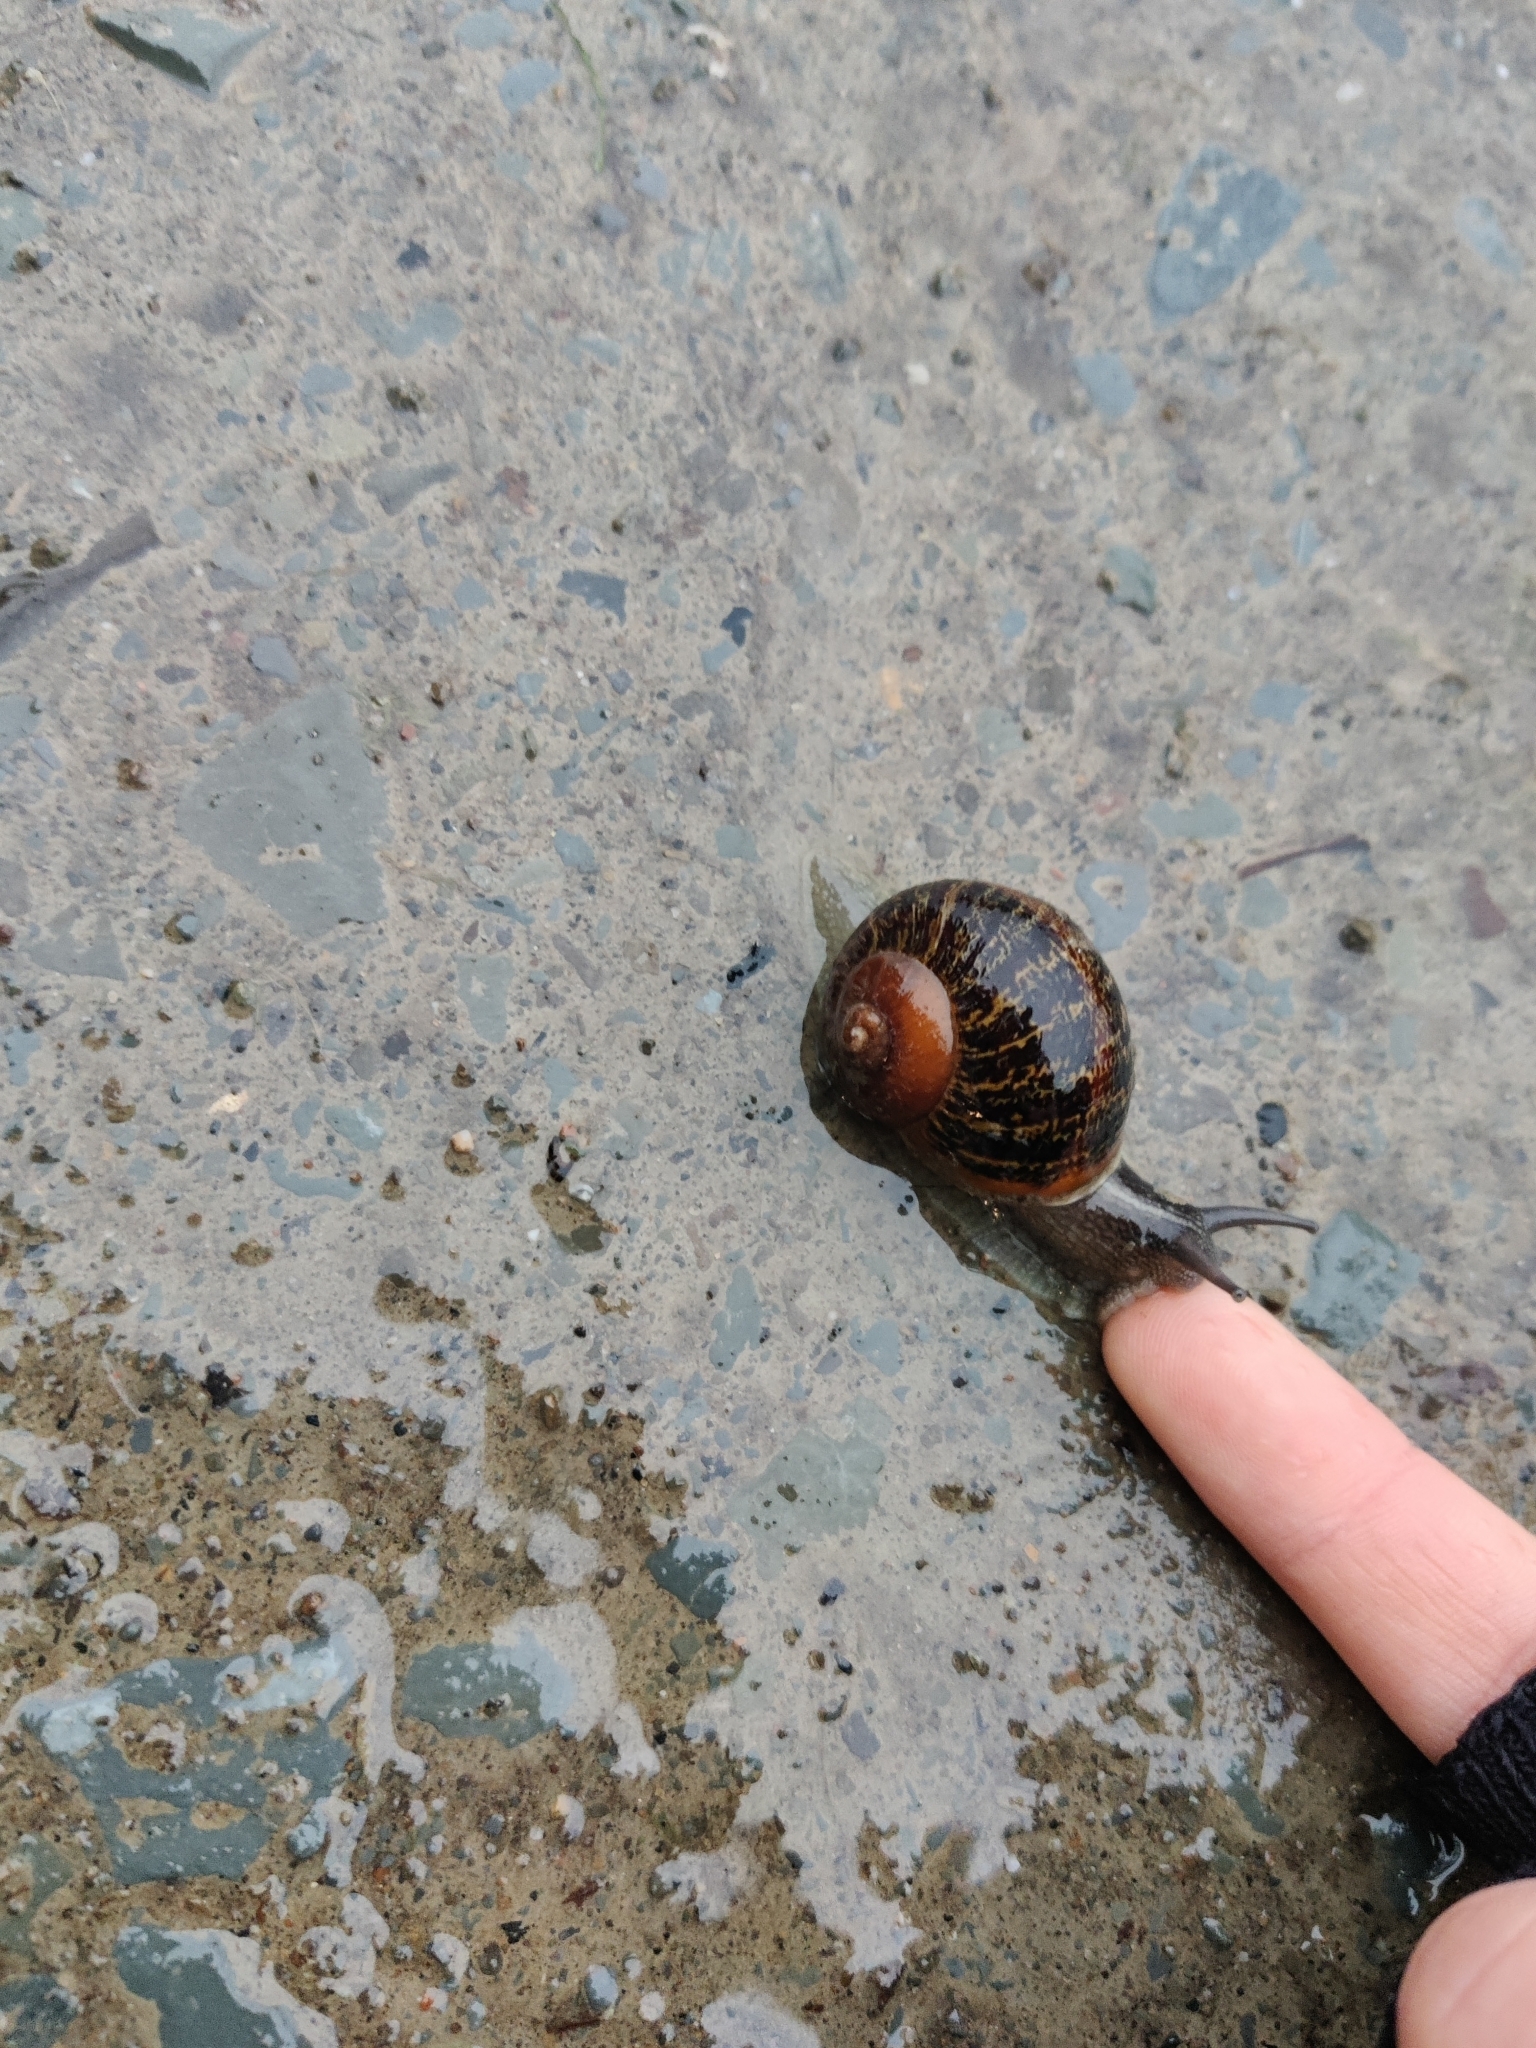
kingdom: Animalia
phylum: Mollusca
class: Gastropoda
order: Stylommatophora
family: Helicidae
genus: Cornu
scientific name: Cornu aspersum
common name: Brown garden snail
